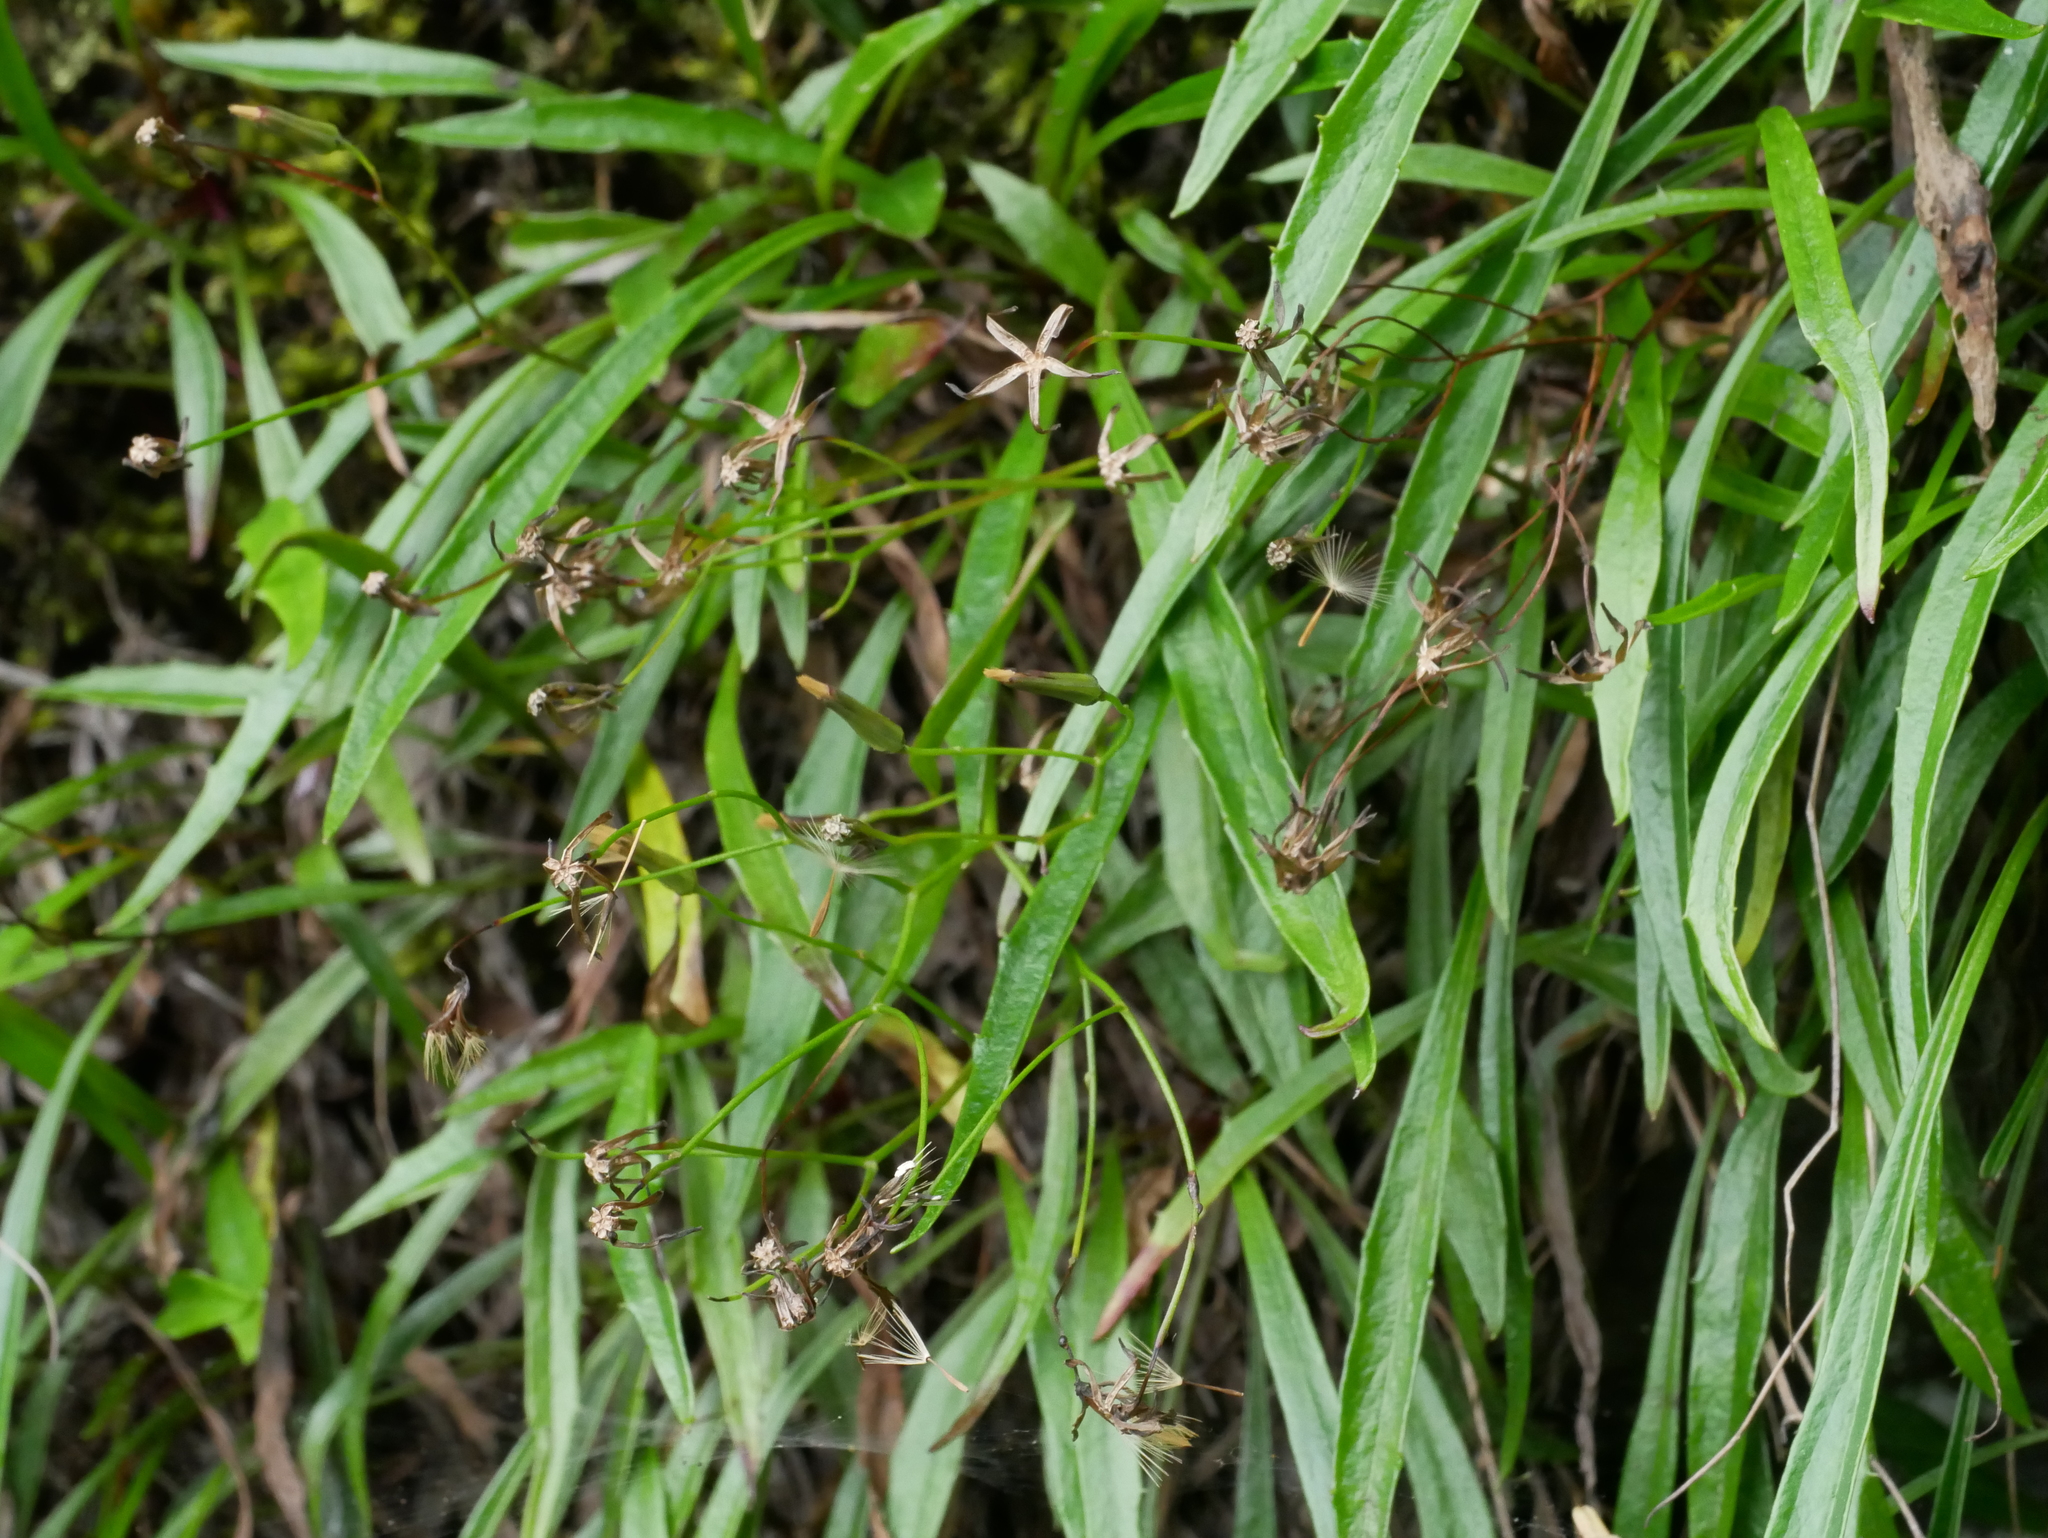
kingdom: Plantae
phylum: Tracheophyta
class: Magnoliopsida
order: Asterales
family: Asteraceae
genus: Ixeridium
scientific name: Ixeridium transnokoense
